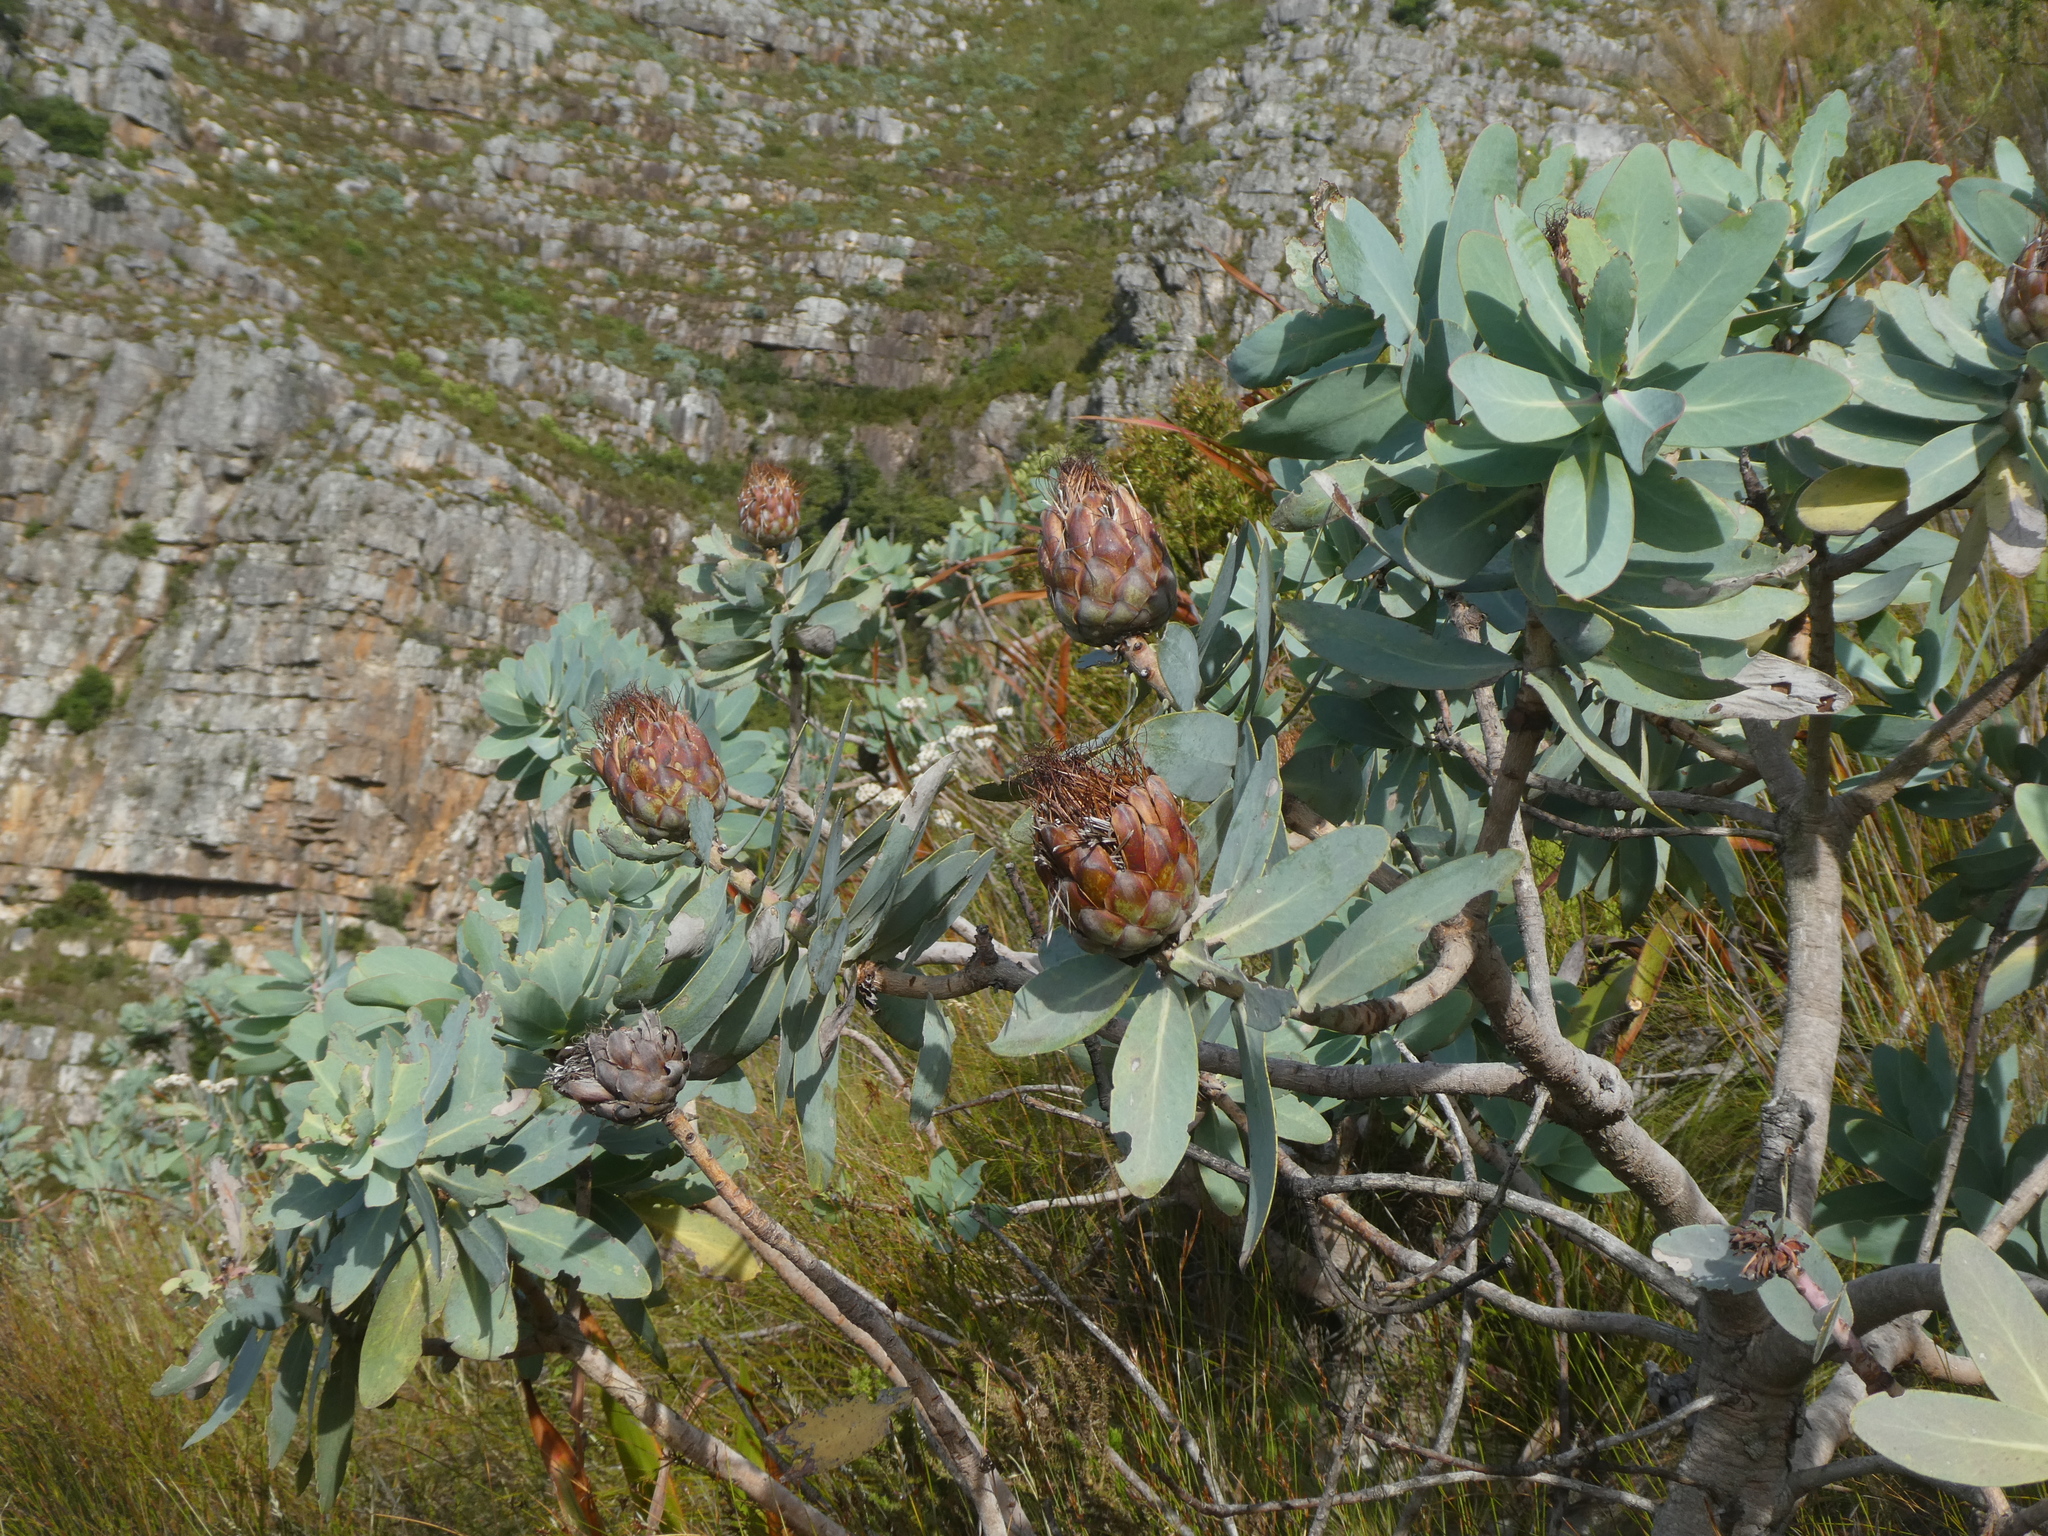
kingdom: Plantae
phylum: Tracheophyta
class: Magnoliopsida
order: Proteales
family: Proteaceae
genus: Protea
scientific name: Protea nitida
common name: Tree protea
